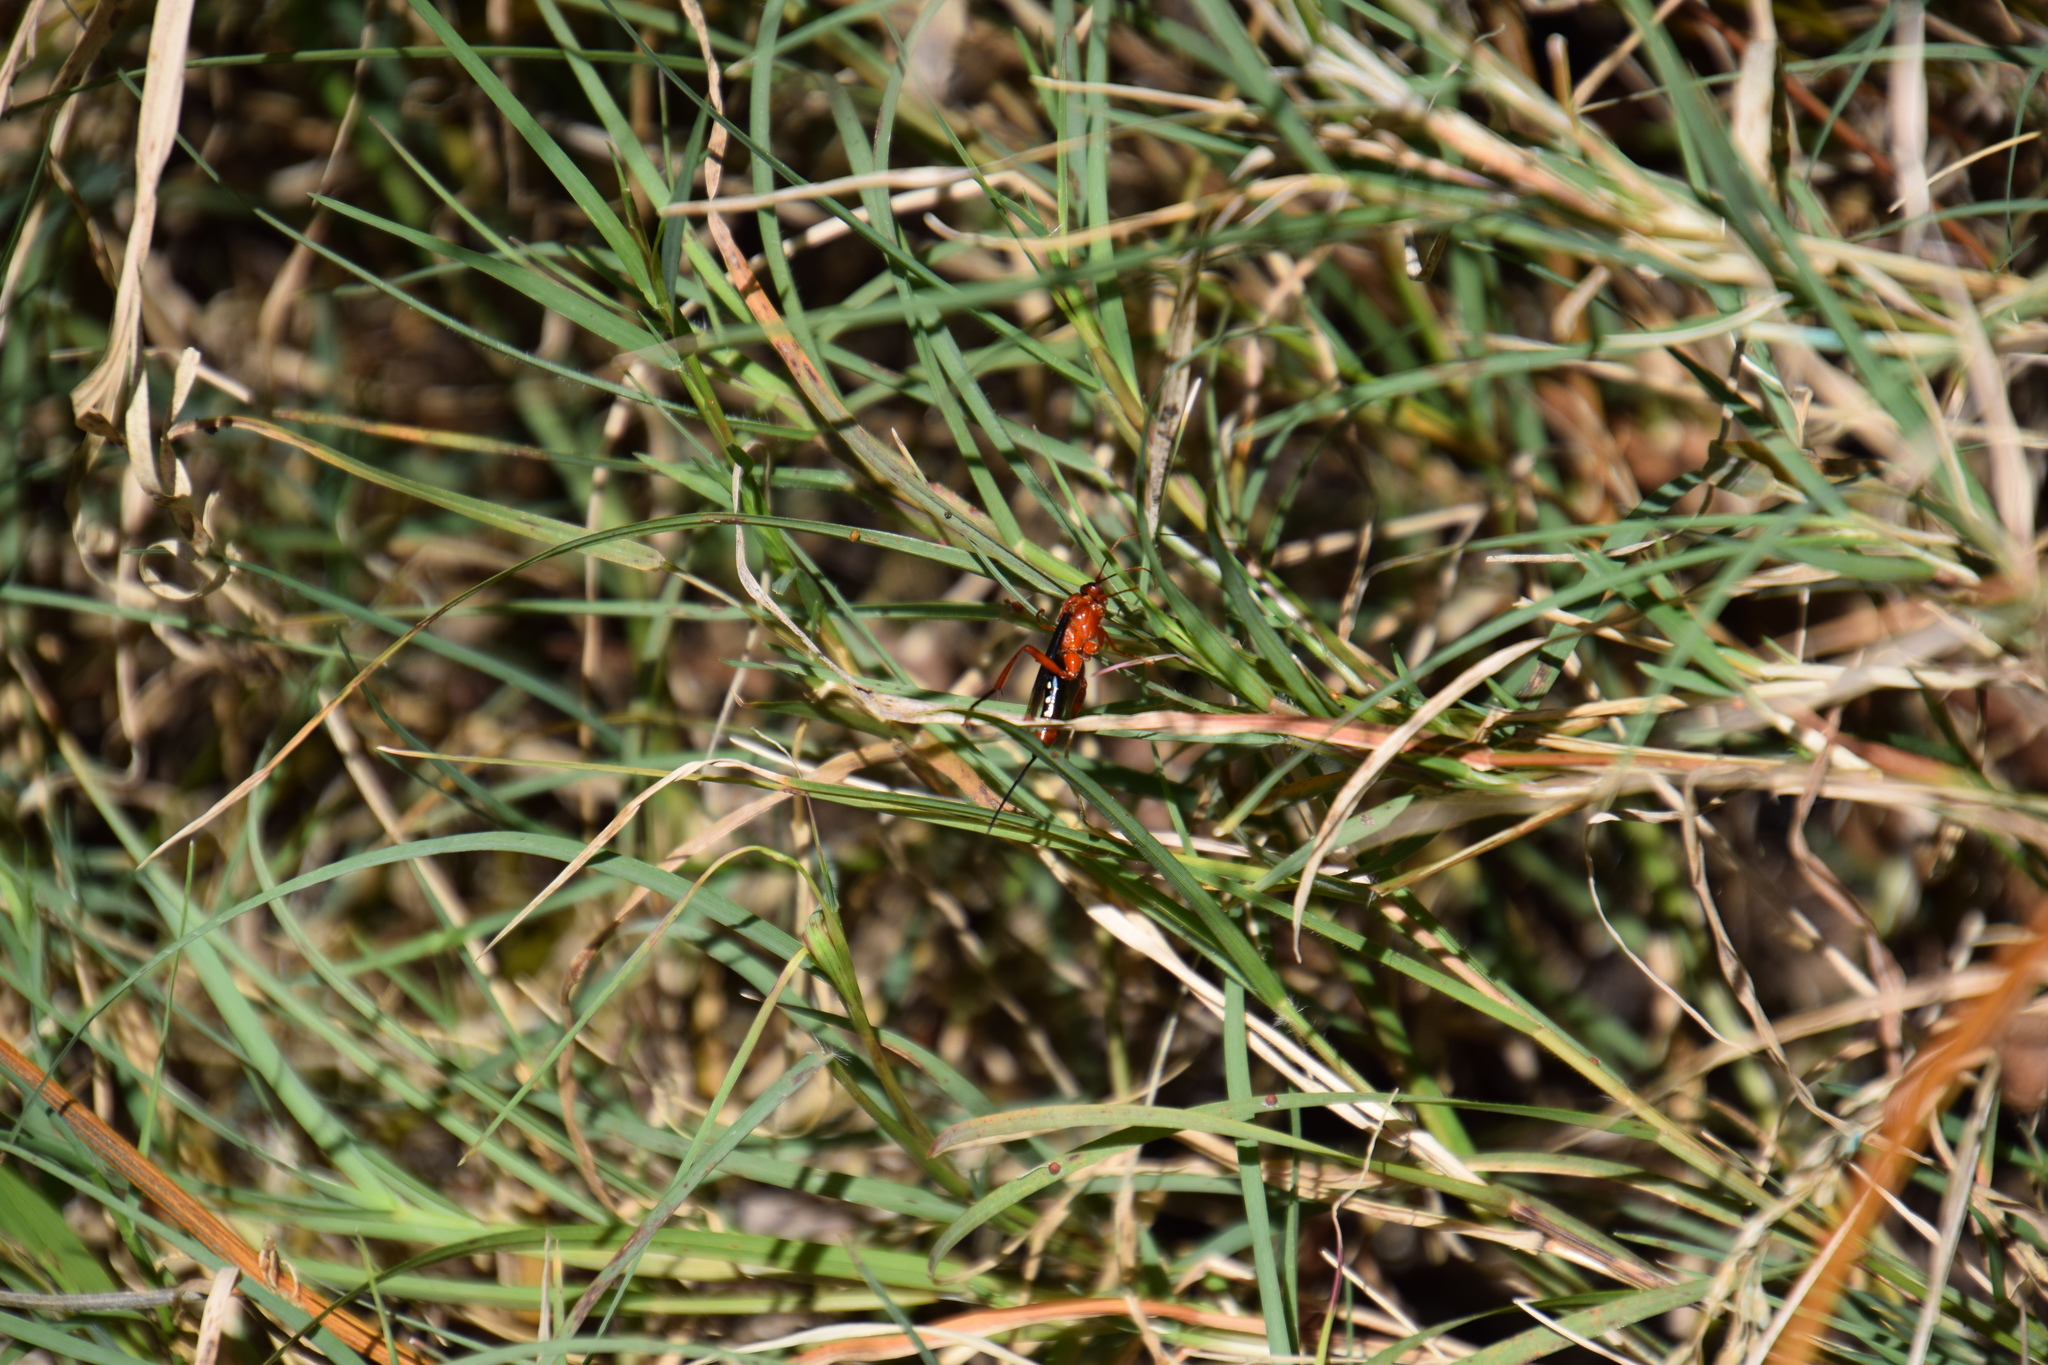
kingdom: Animalia
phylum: Arthropoda
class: Insecta
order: Hymenoptera
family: Ichneumonidae
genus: Lissopimpla
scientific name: Lissopimpla excelsa
